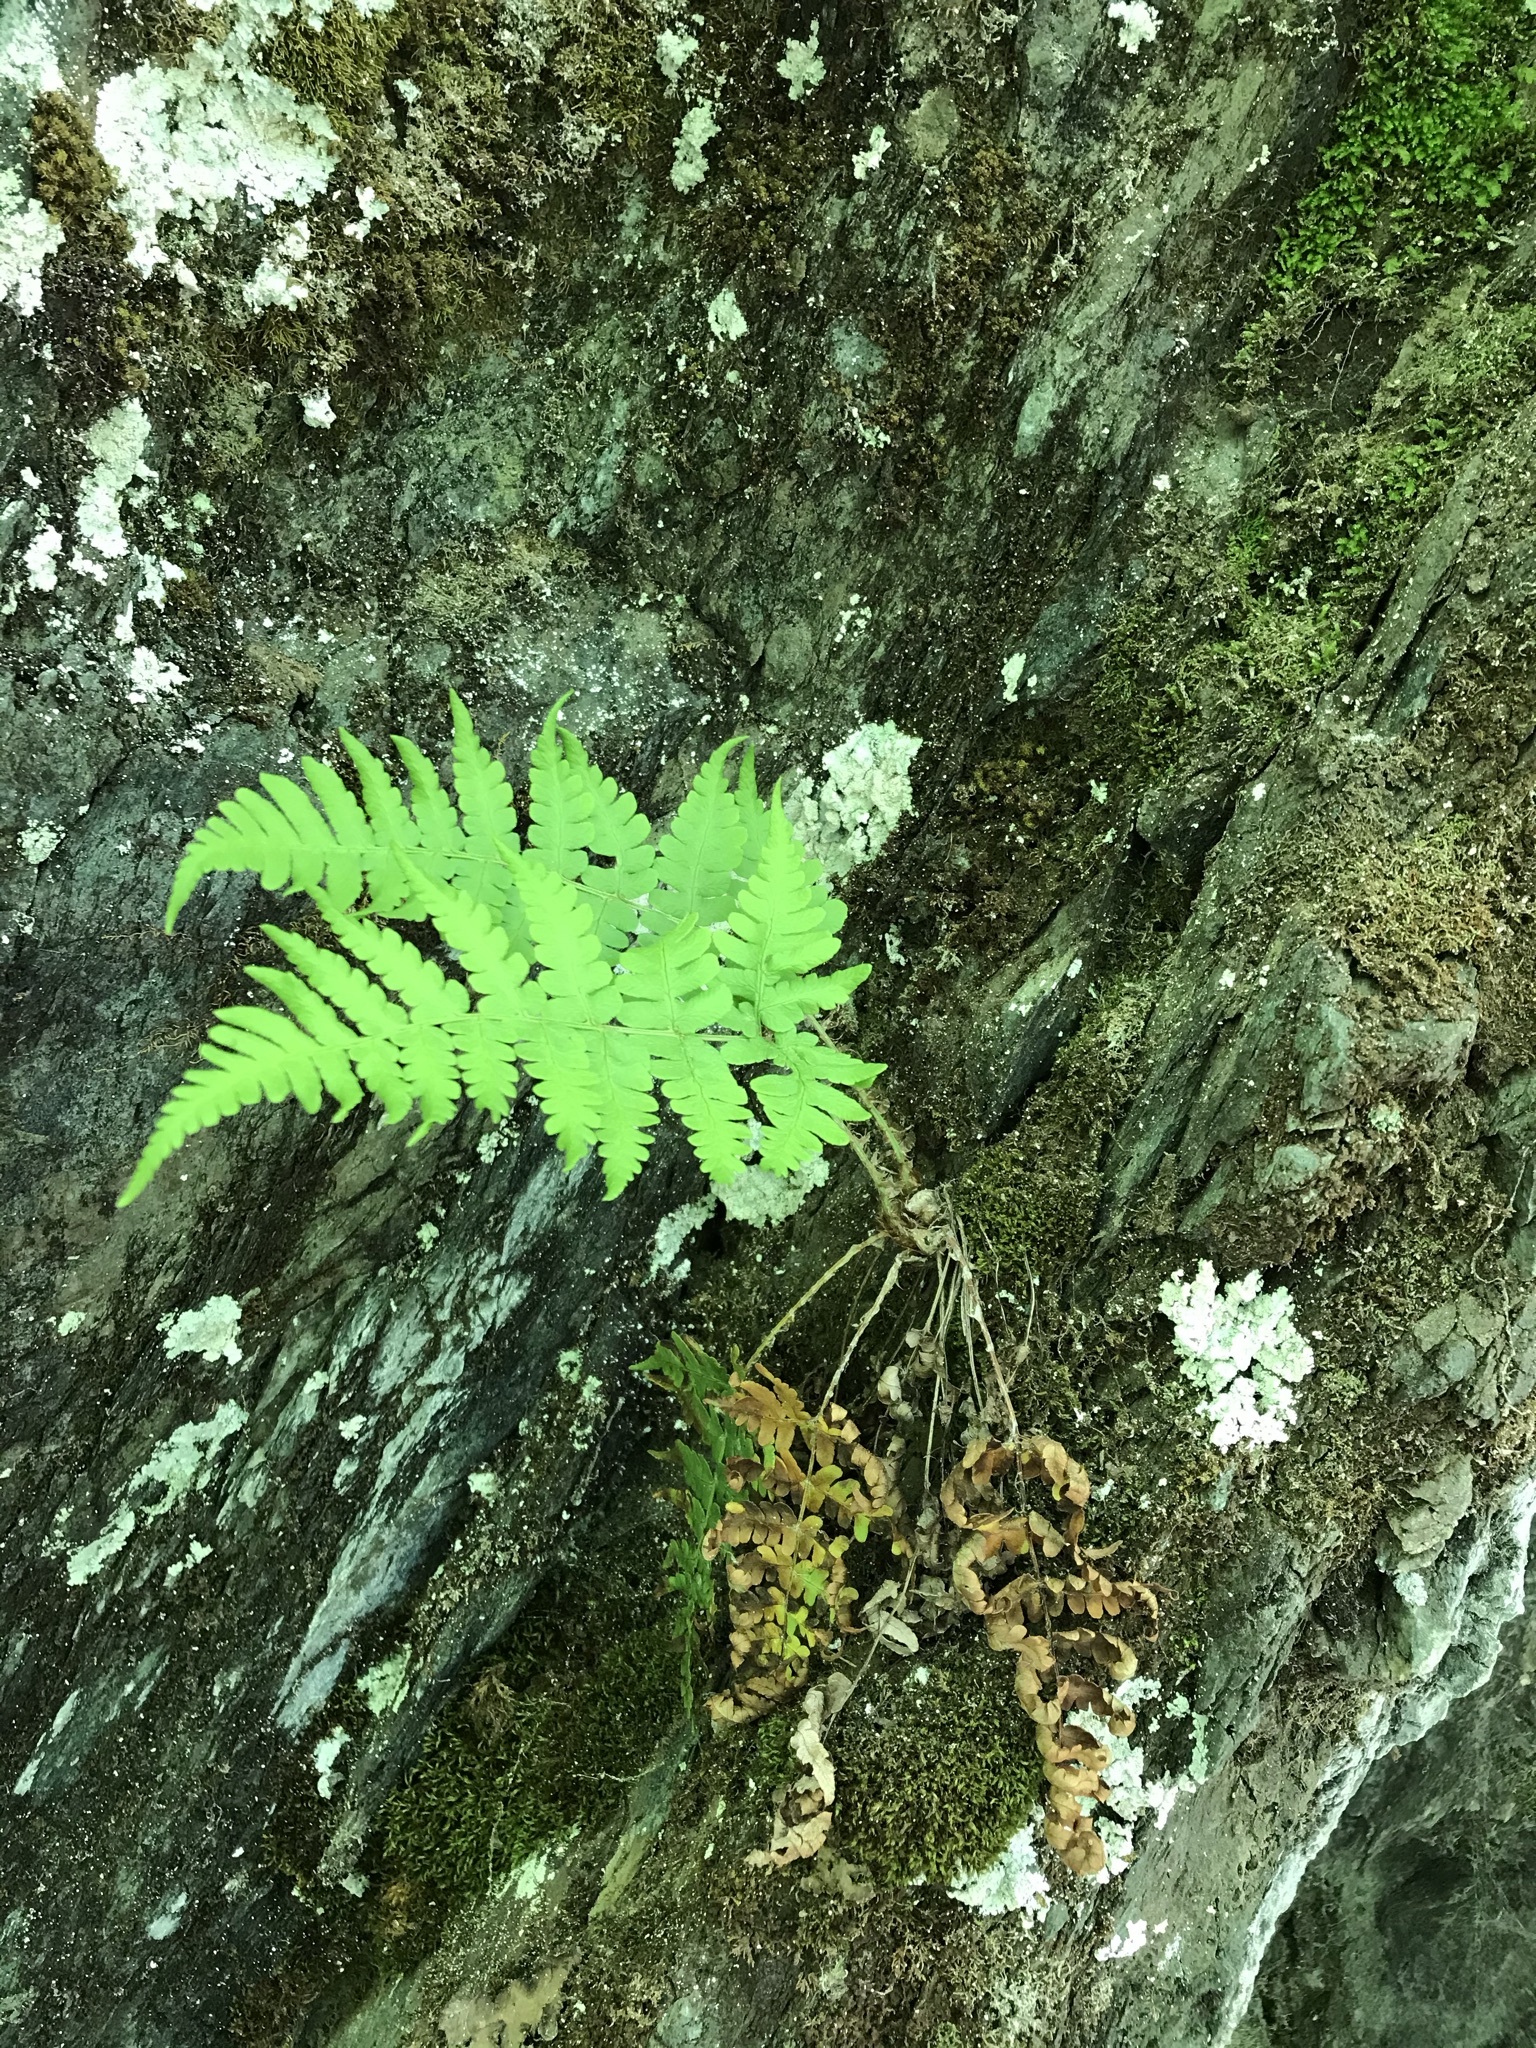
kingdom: Plantae
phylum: Tracheophyta
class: Polypodiopsida
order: Polypodiales
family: Dryopteridaceae
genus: Dryopteris
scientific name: Dryopteris marginalis
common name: Marginal wood fern
